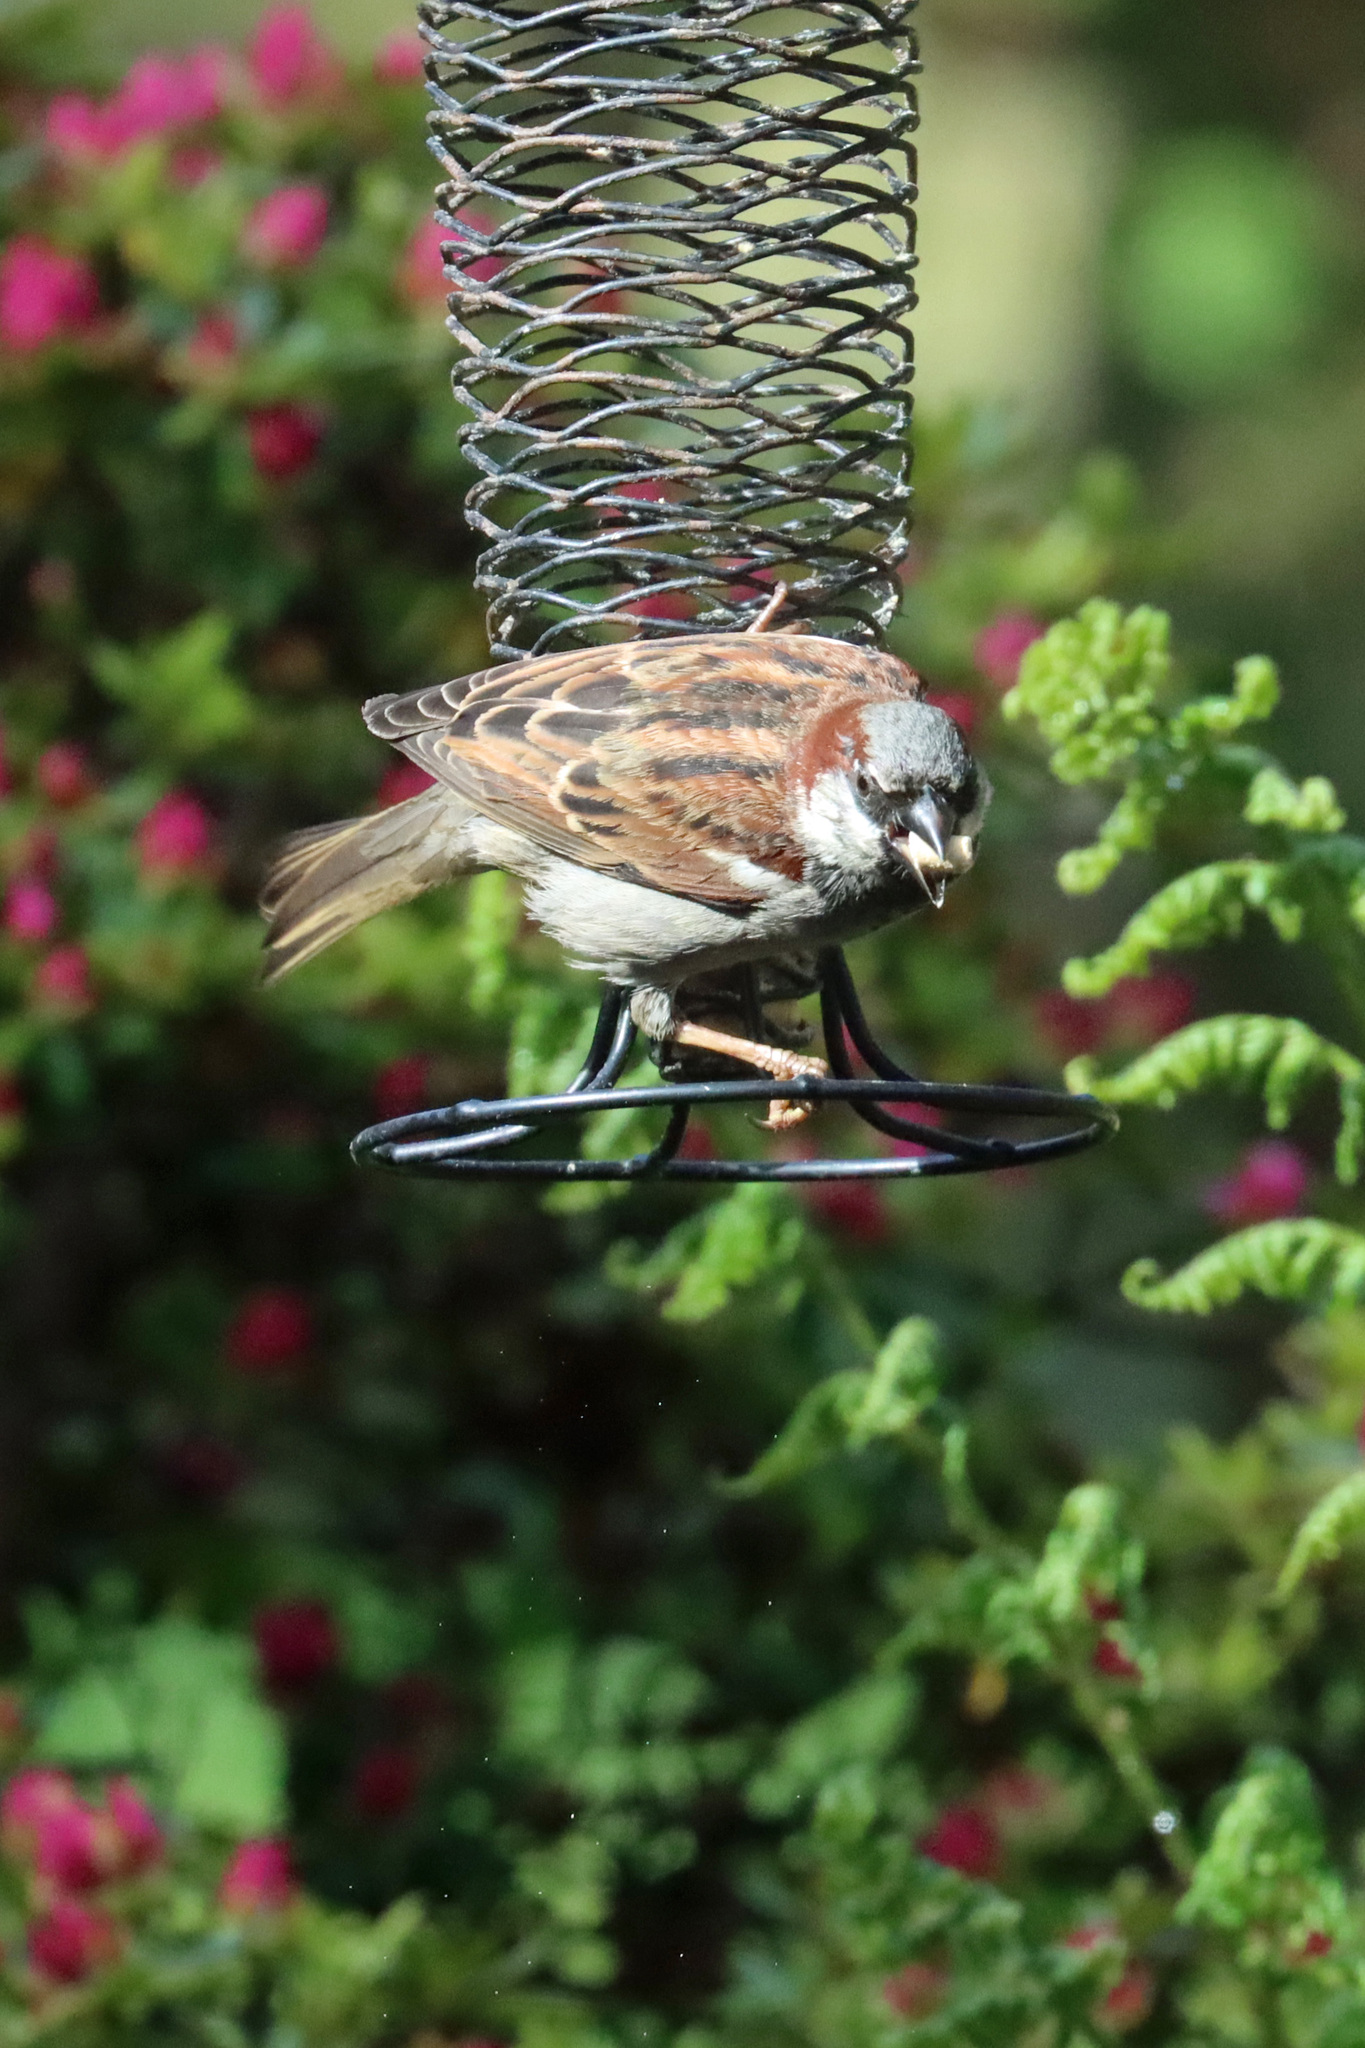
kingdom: Animalia
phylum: Chordata
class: Aves
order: Passeriformes
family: Passeridae
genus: Passer
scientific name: Passer domesticus
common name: House sparrow
